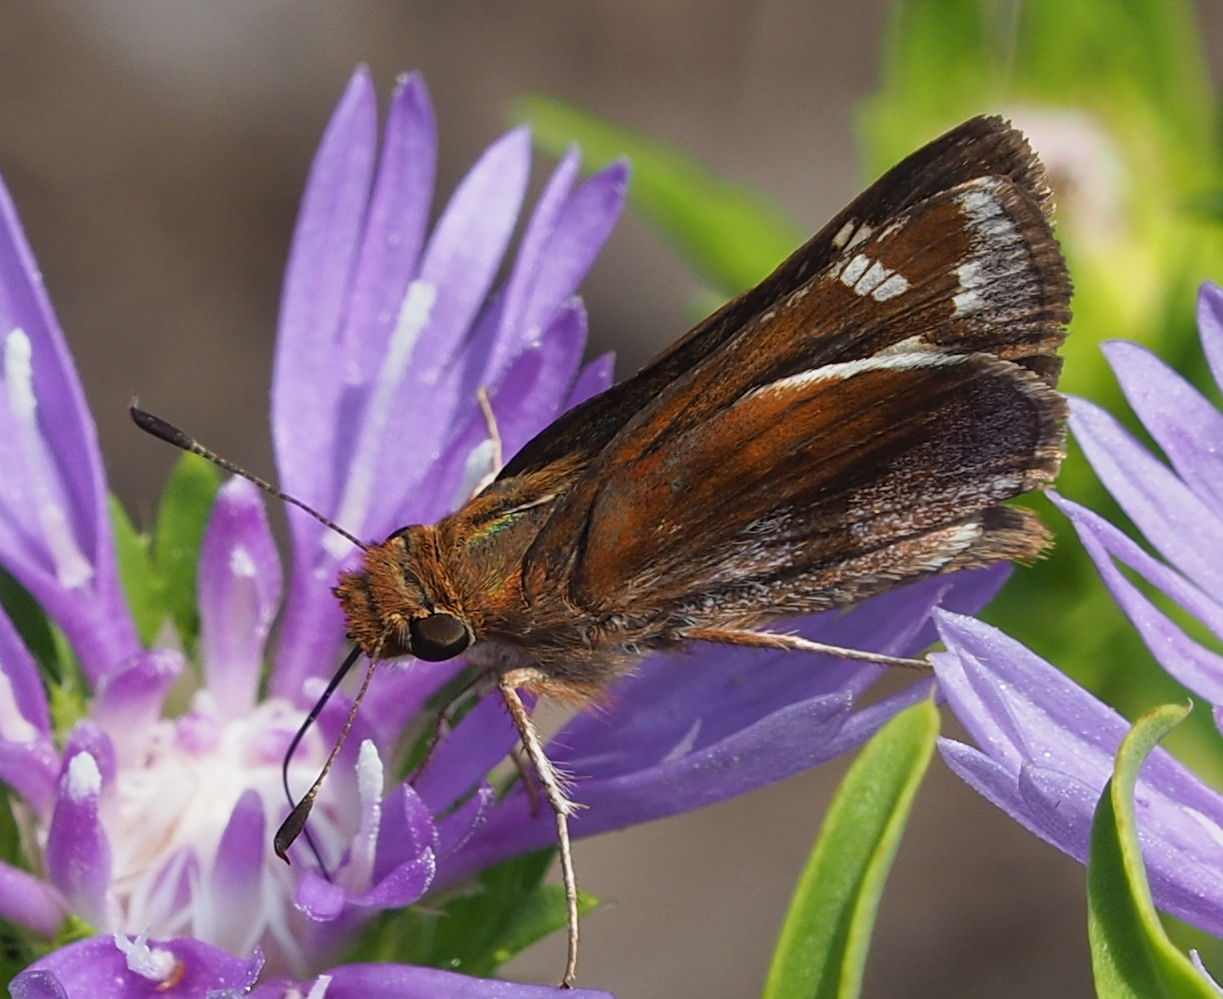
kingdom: Animalia
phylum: Arthropoda
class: Insecta
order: Lepidoptera
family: Hesperiidae
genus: Lon
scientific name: Lon zabulon
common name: Zabulon skipper
